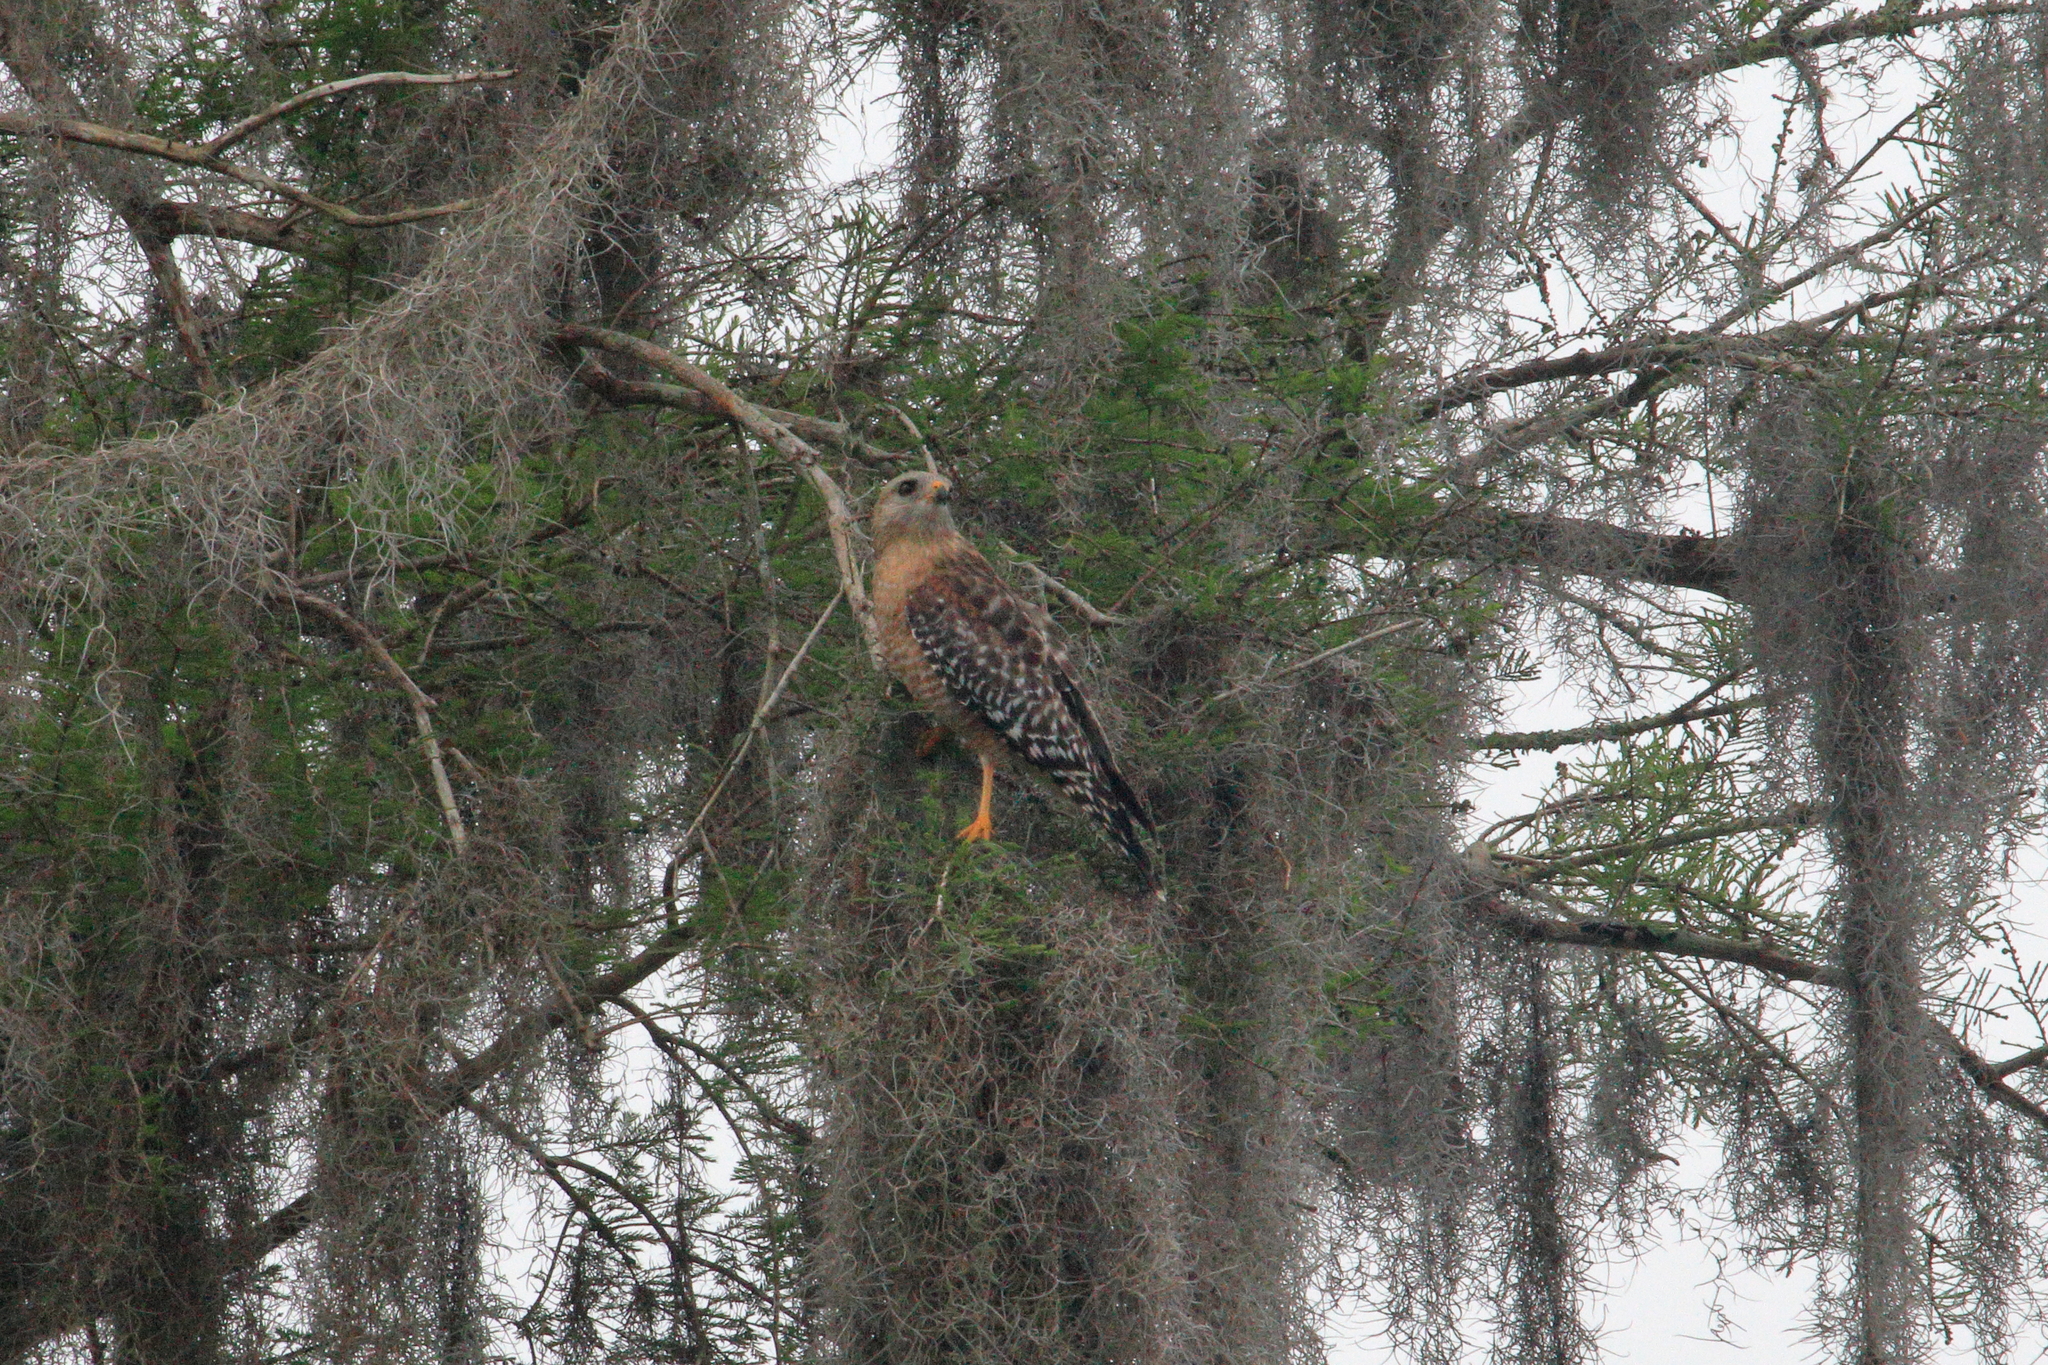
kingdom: Animalia
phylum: Chordata
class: Aves
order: Accipitriformes
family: Accipitridae
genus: Buteo
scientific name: Buteo lineatus
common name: Red-shouldered hawk
